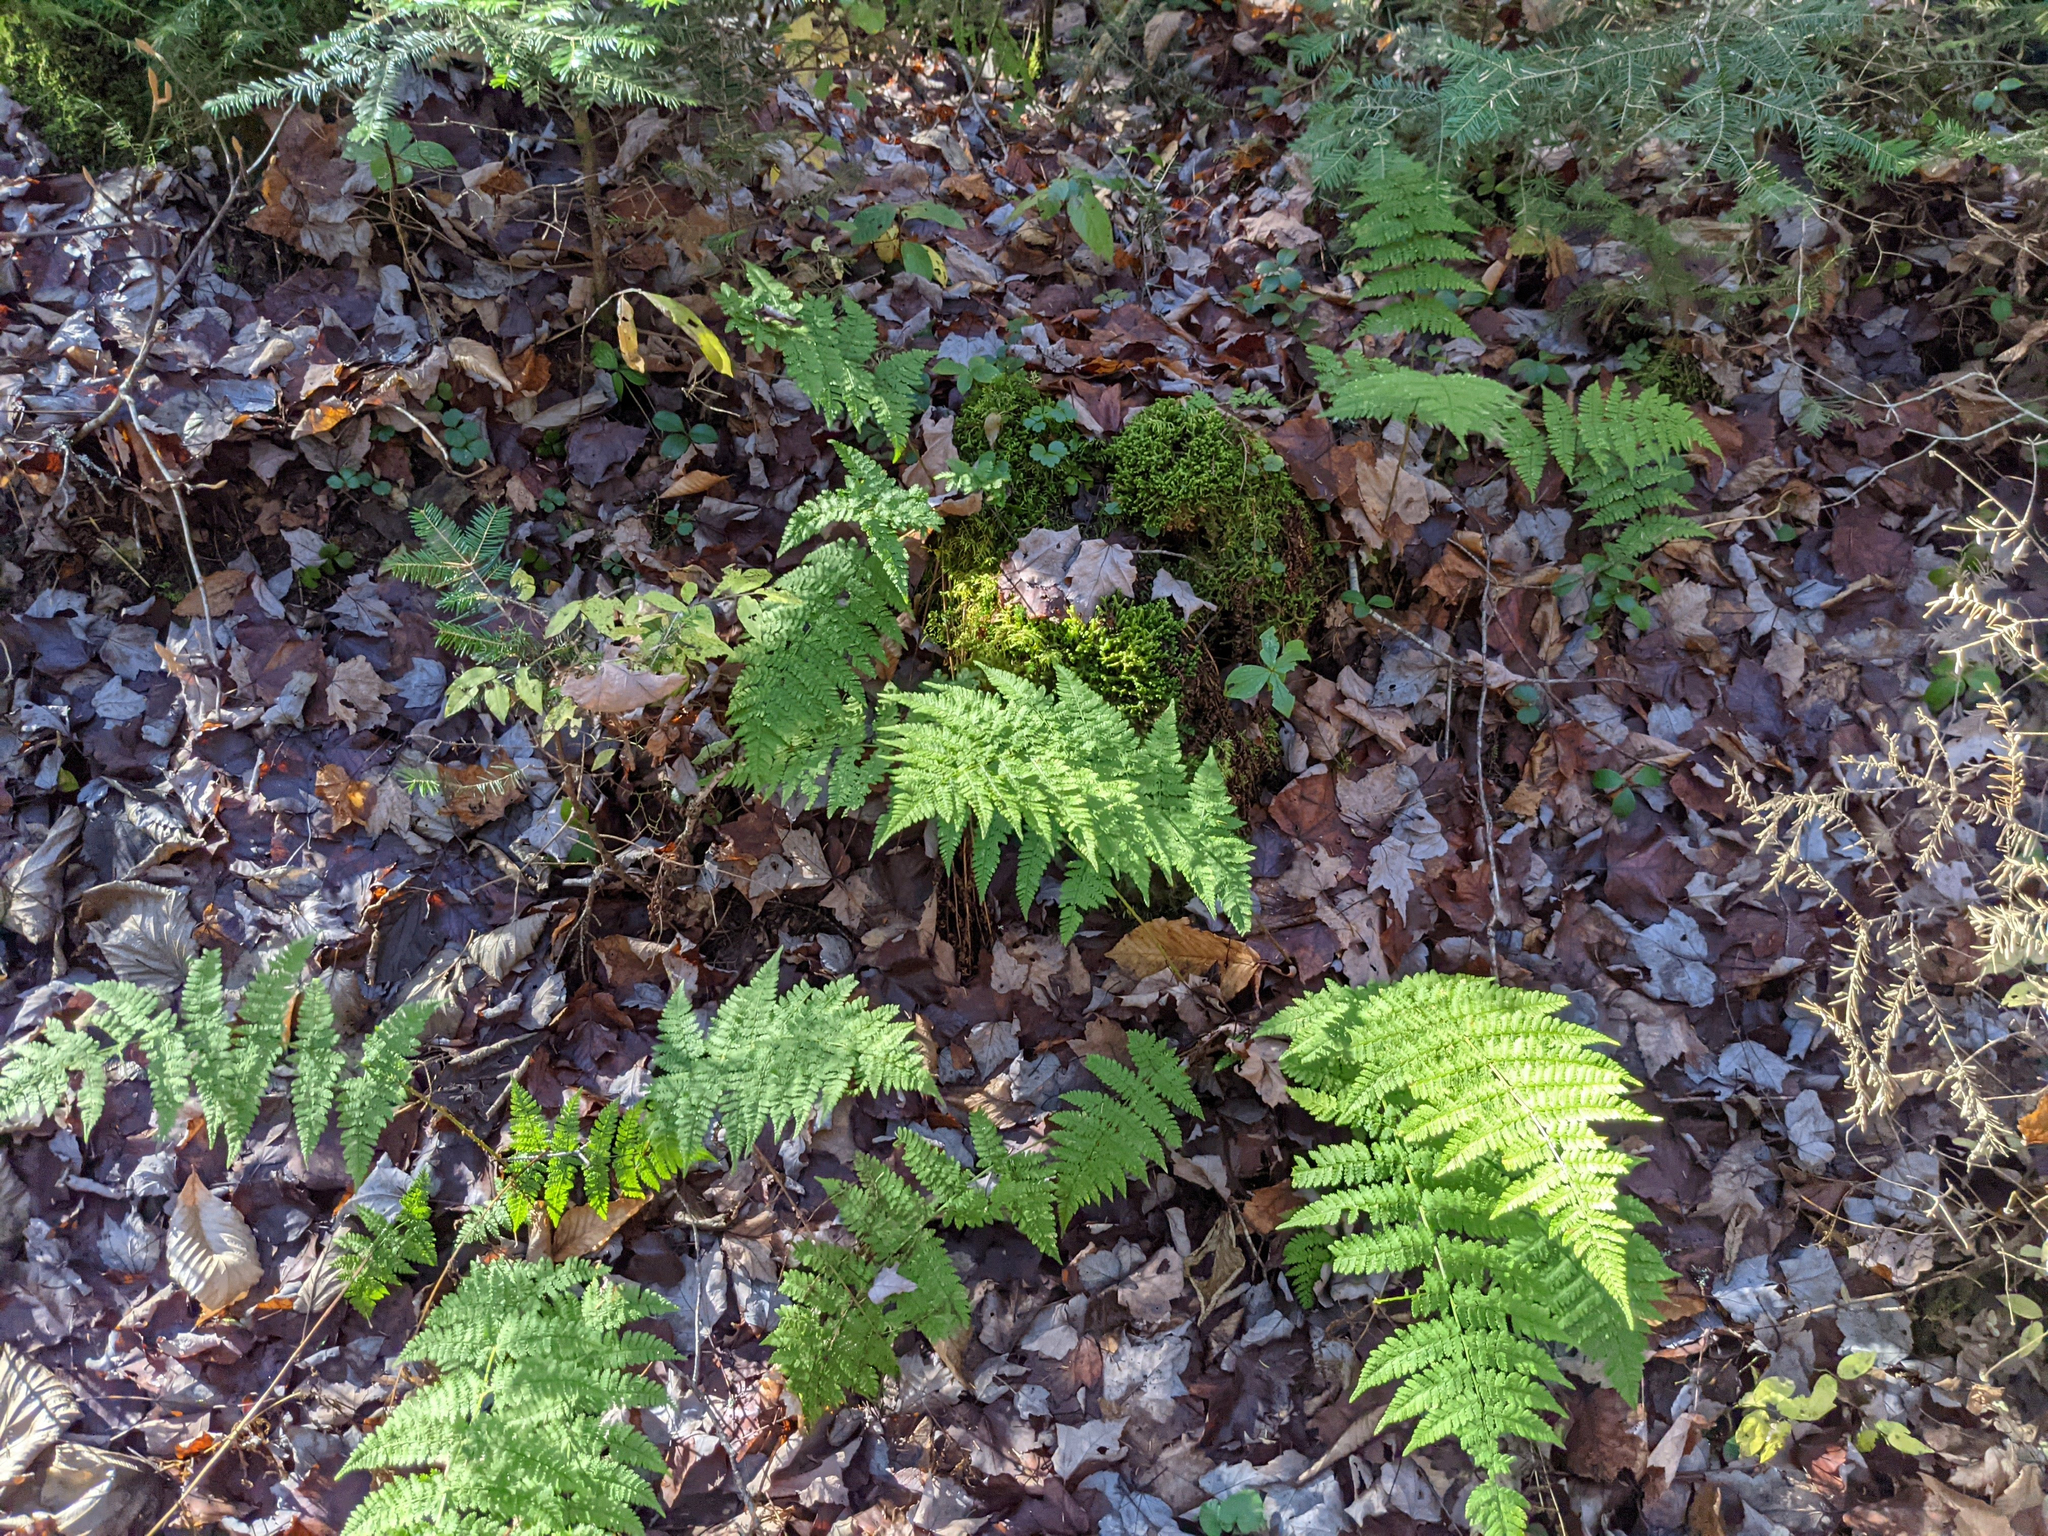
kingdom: Plantae
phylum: Tracheophyta
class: Polypodiopsida
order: Polypodiales
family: Dryopteridaceae
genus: Dryopteris
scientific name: Dryopteris intermedia
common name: Evergreen wood fern
